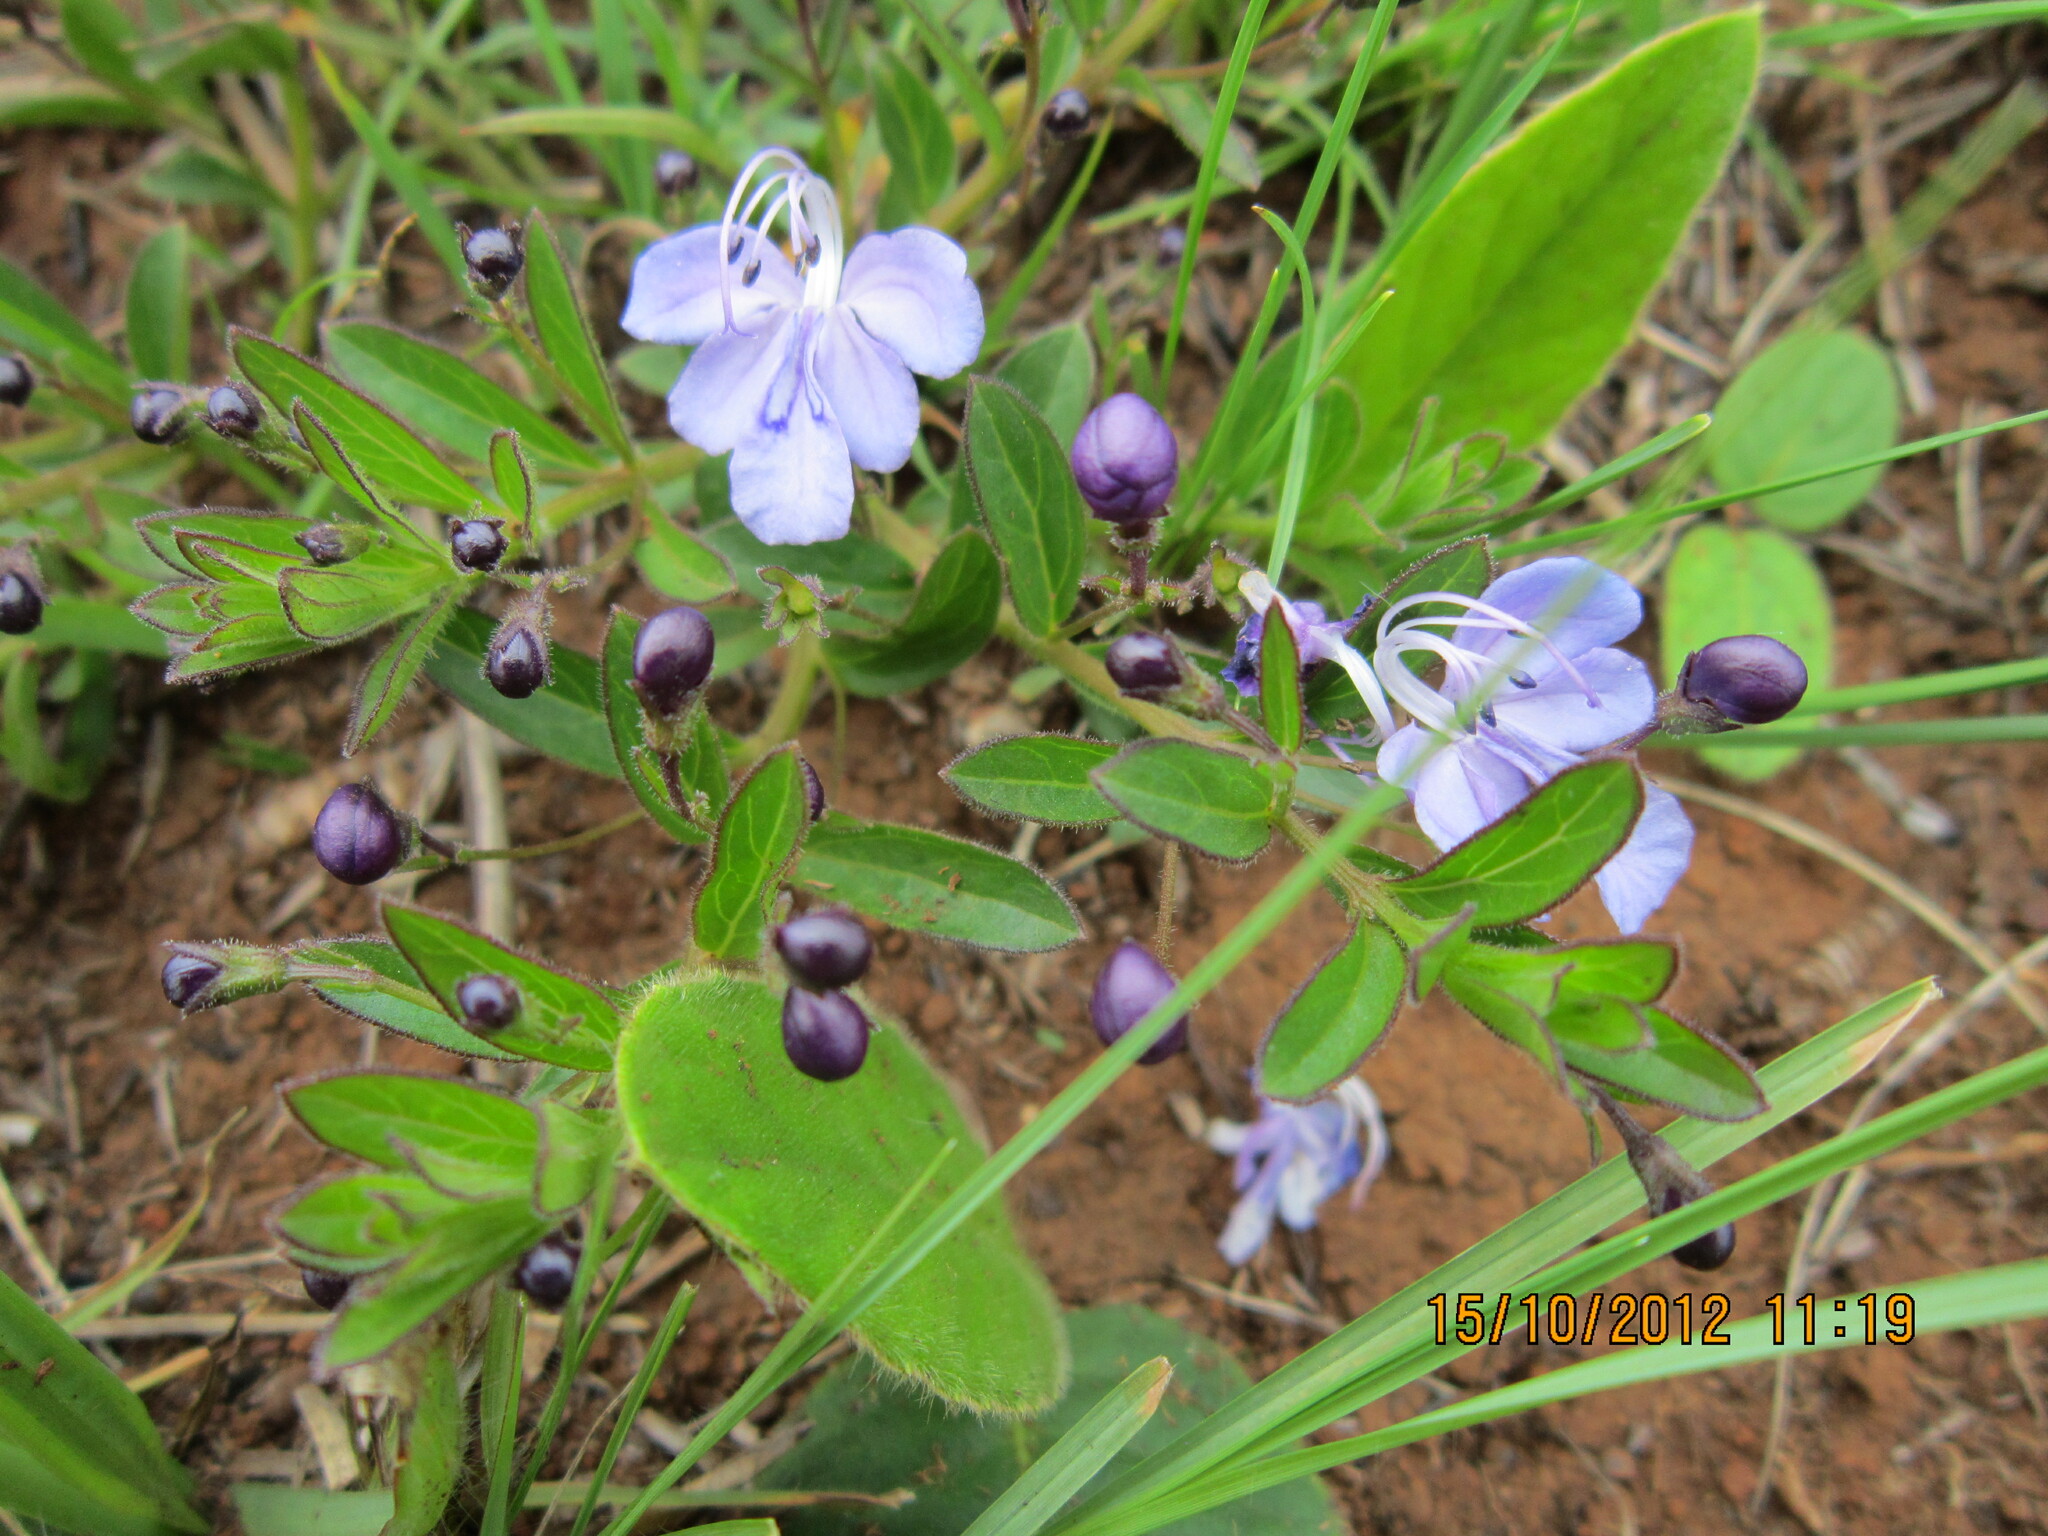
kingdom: Plantae
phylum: Tracheophyta
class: Magnoliopsida
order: Lamiales
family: Lamiaceae
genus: Rotheca
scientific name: Rotheca hirsuta
